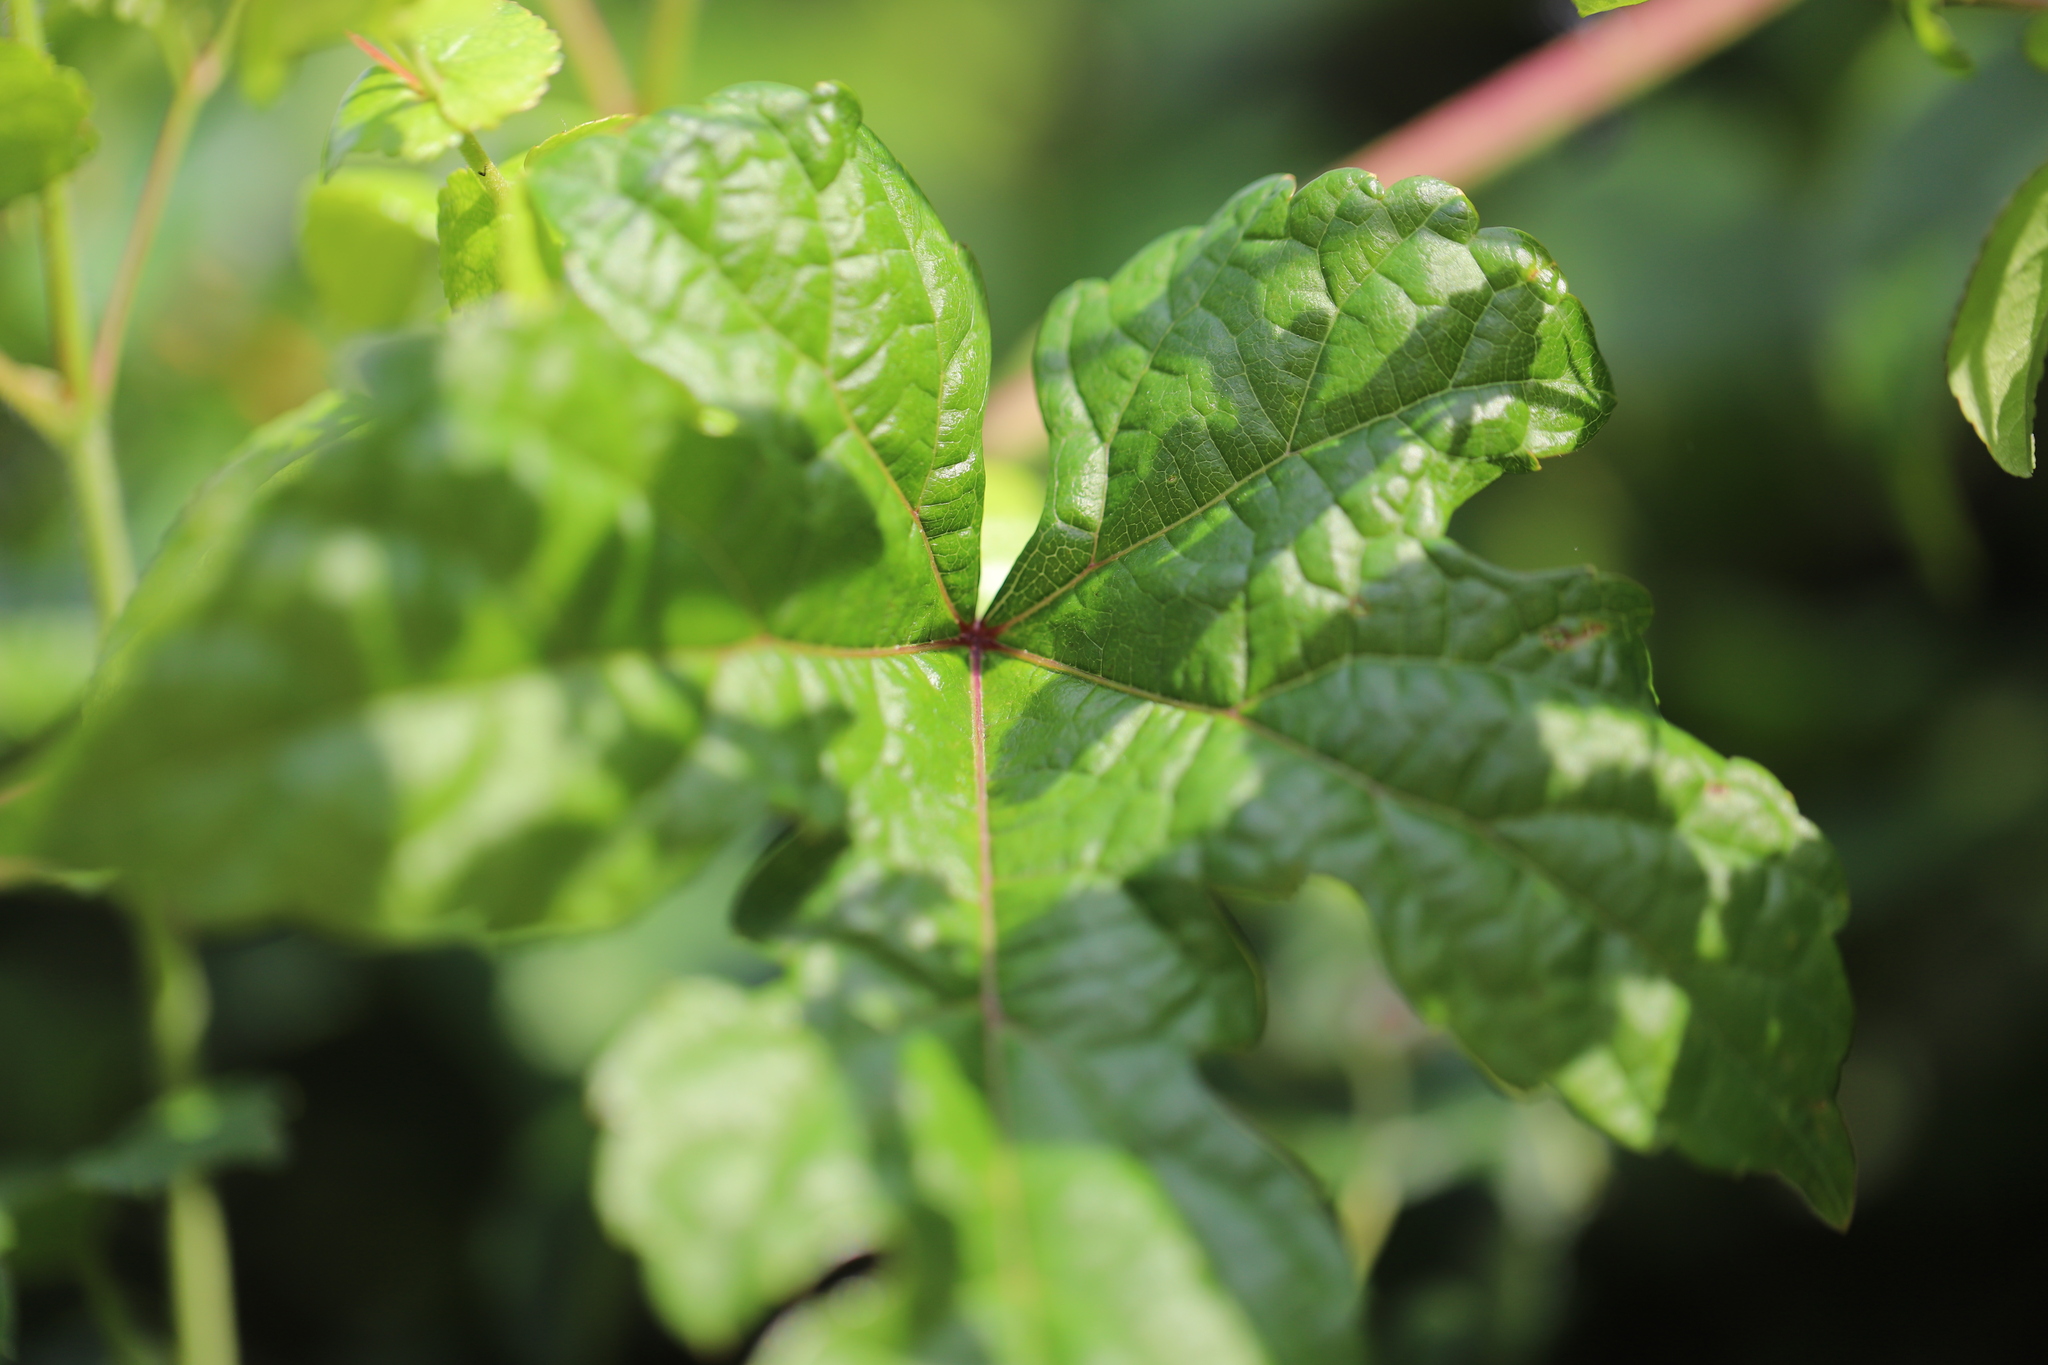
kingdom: Animalia
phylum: Arthropoda
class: Insecta
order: Hemiptera
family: Fulgoridae
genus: Lycorma
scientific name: Lycorma delicatula
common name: Spotted lanternfly
